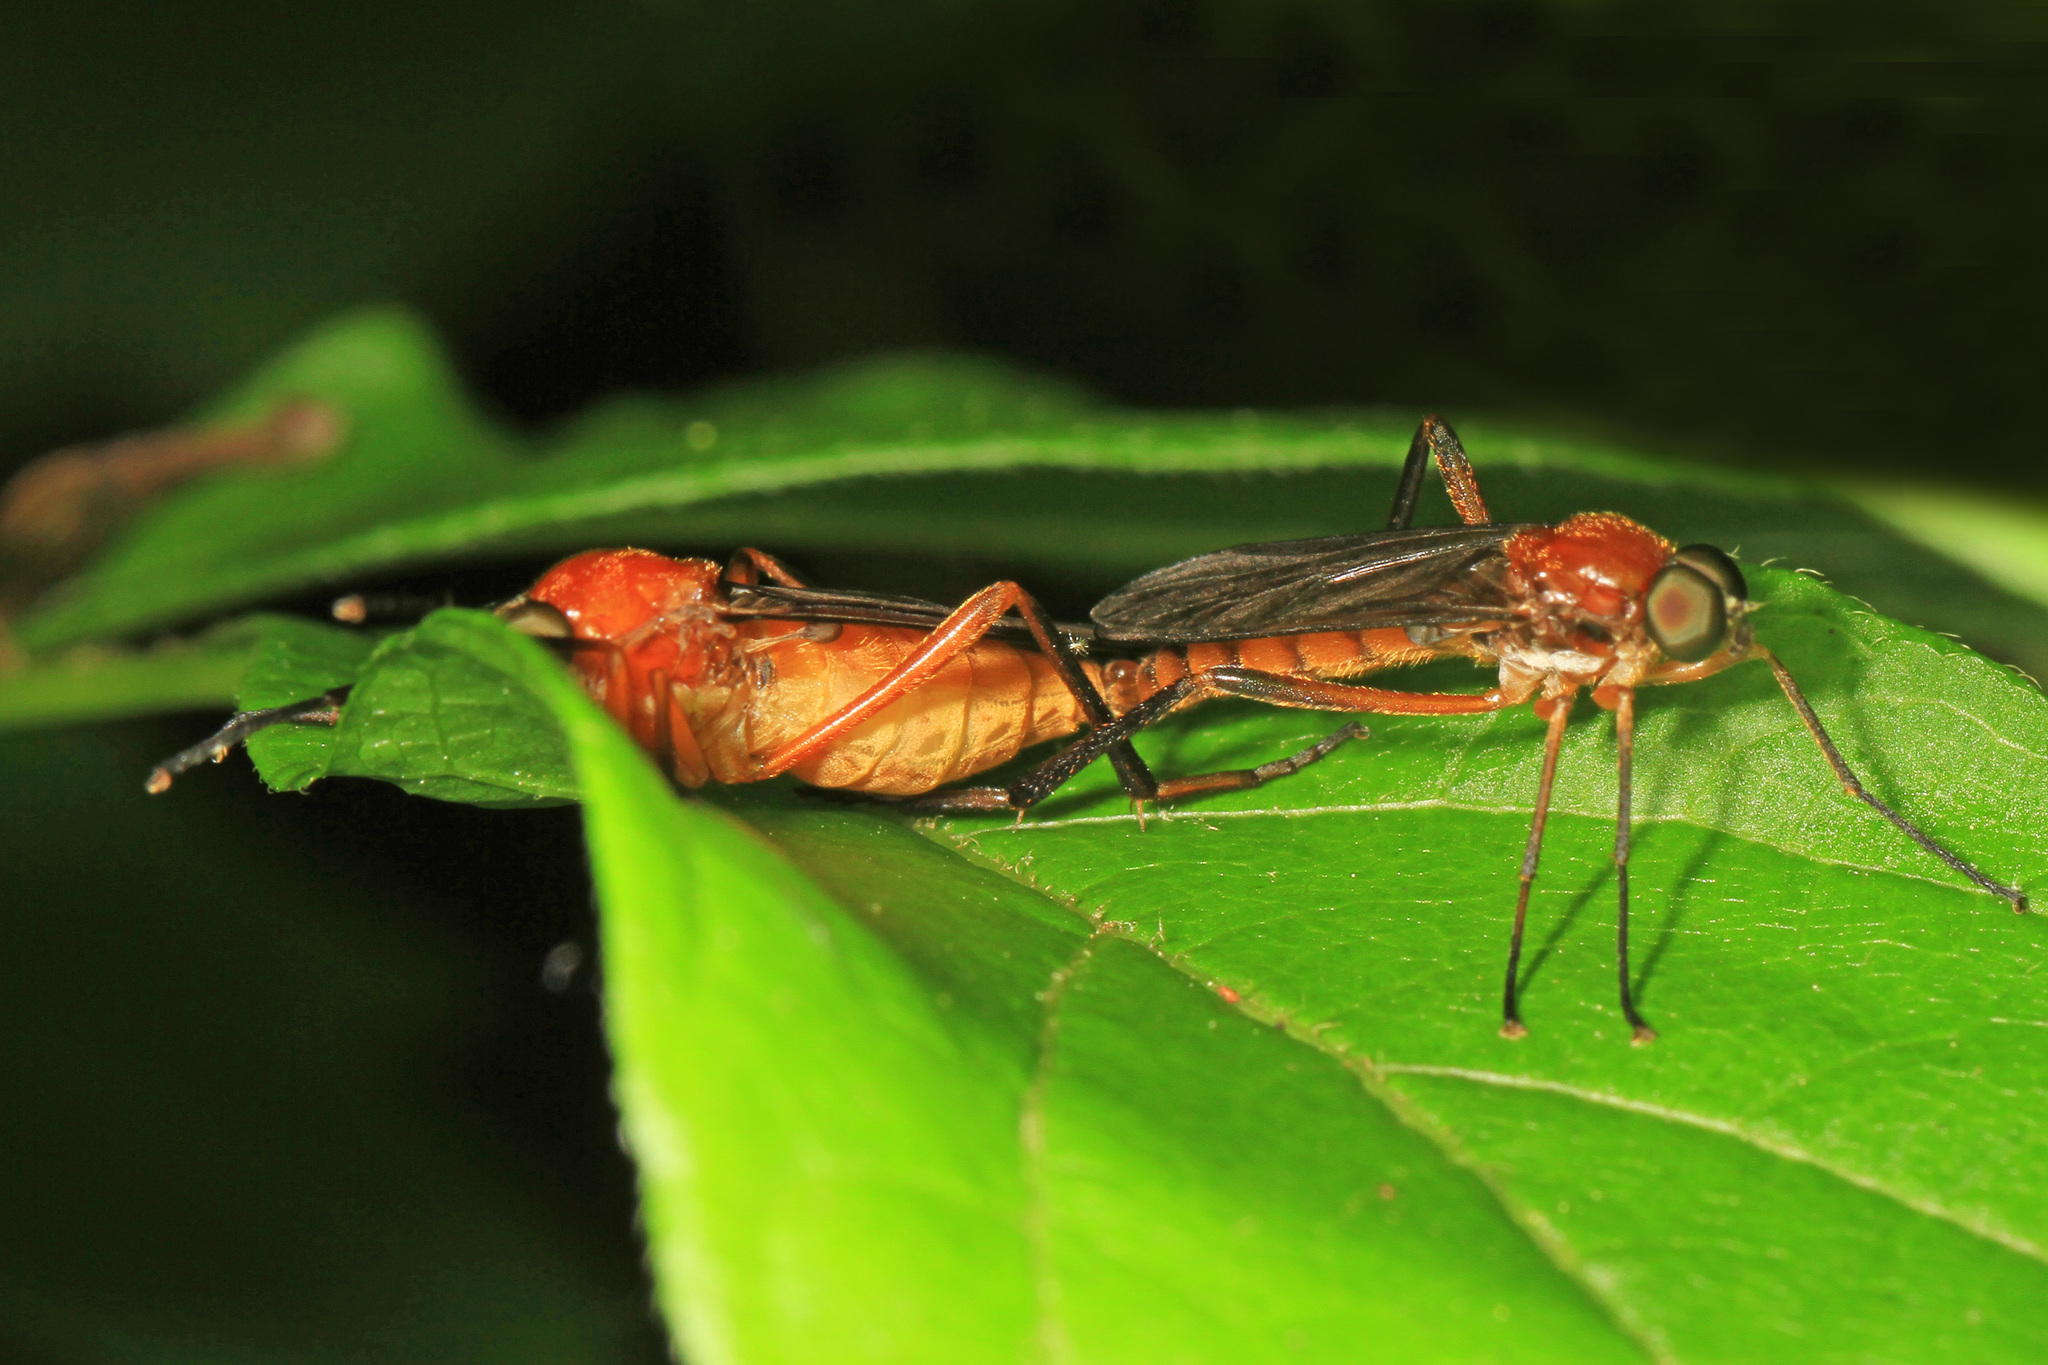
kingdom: Animalia
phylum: Arthropoda
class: Insecta
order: Diptera
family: Xylophagidae
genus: Dialysis
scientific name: Dialysis rufithorax
